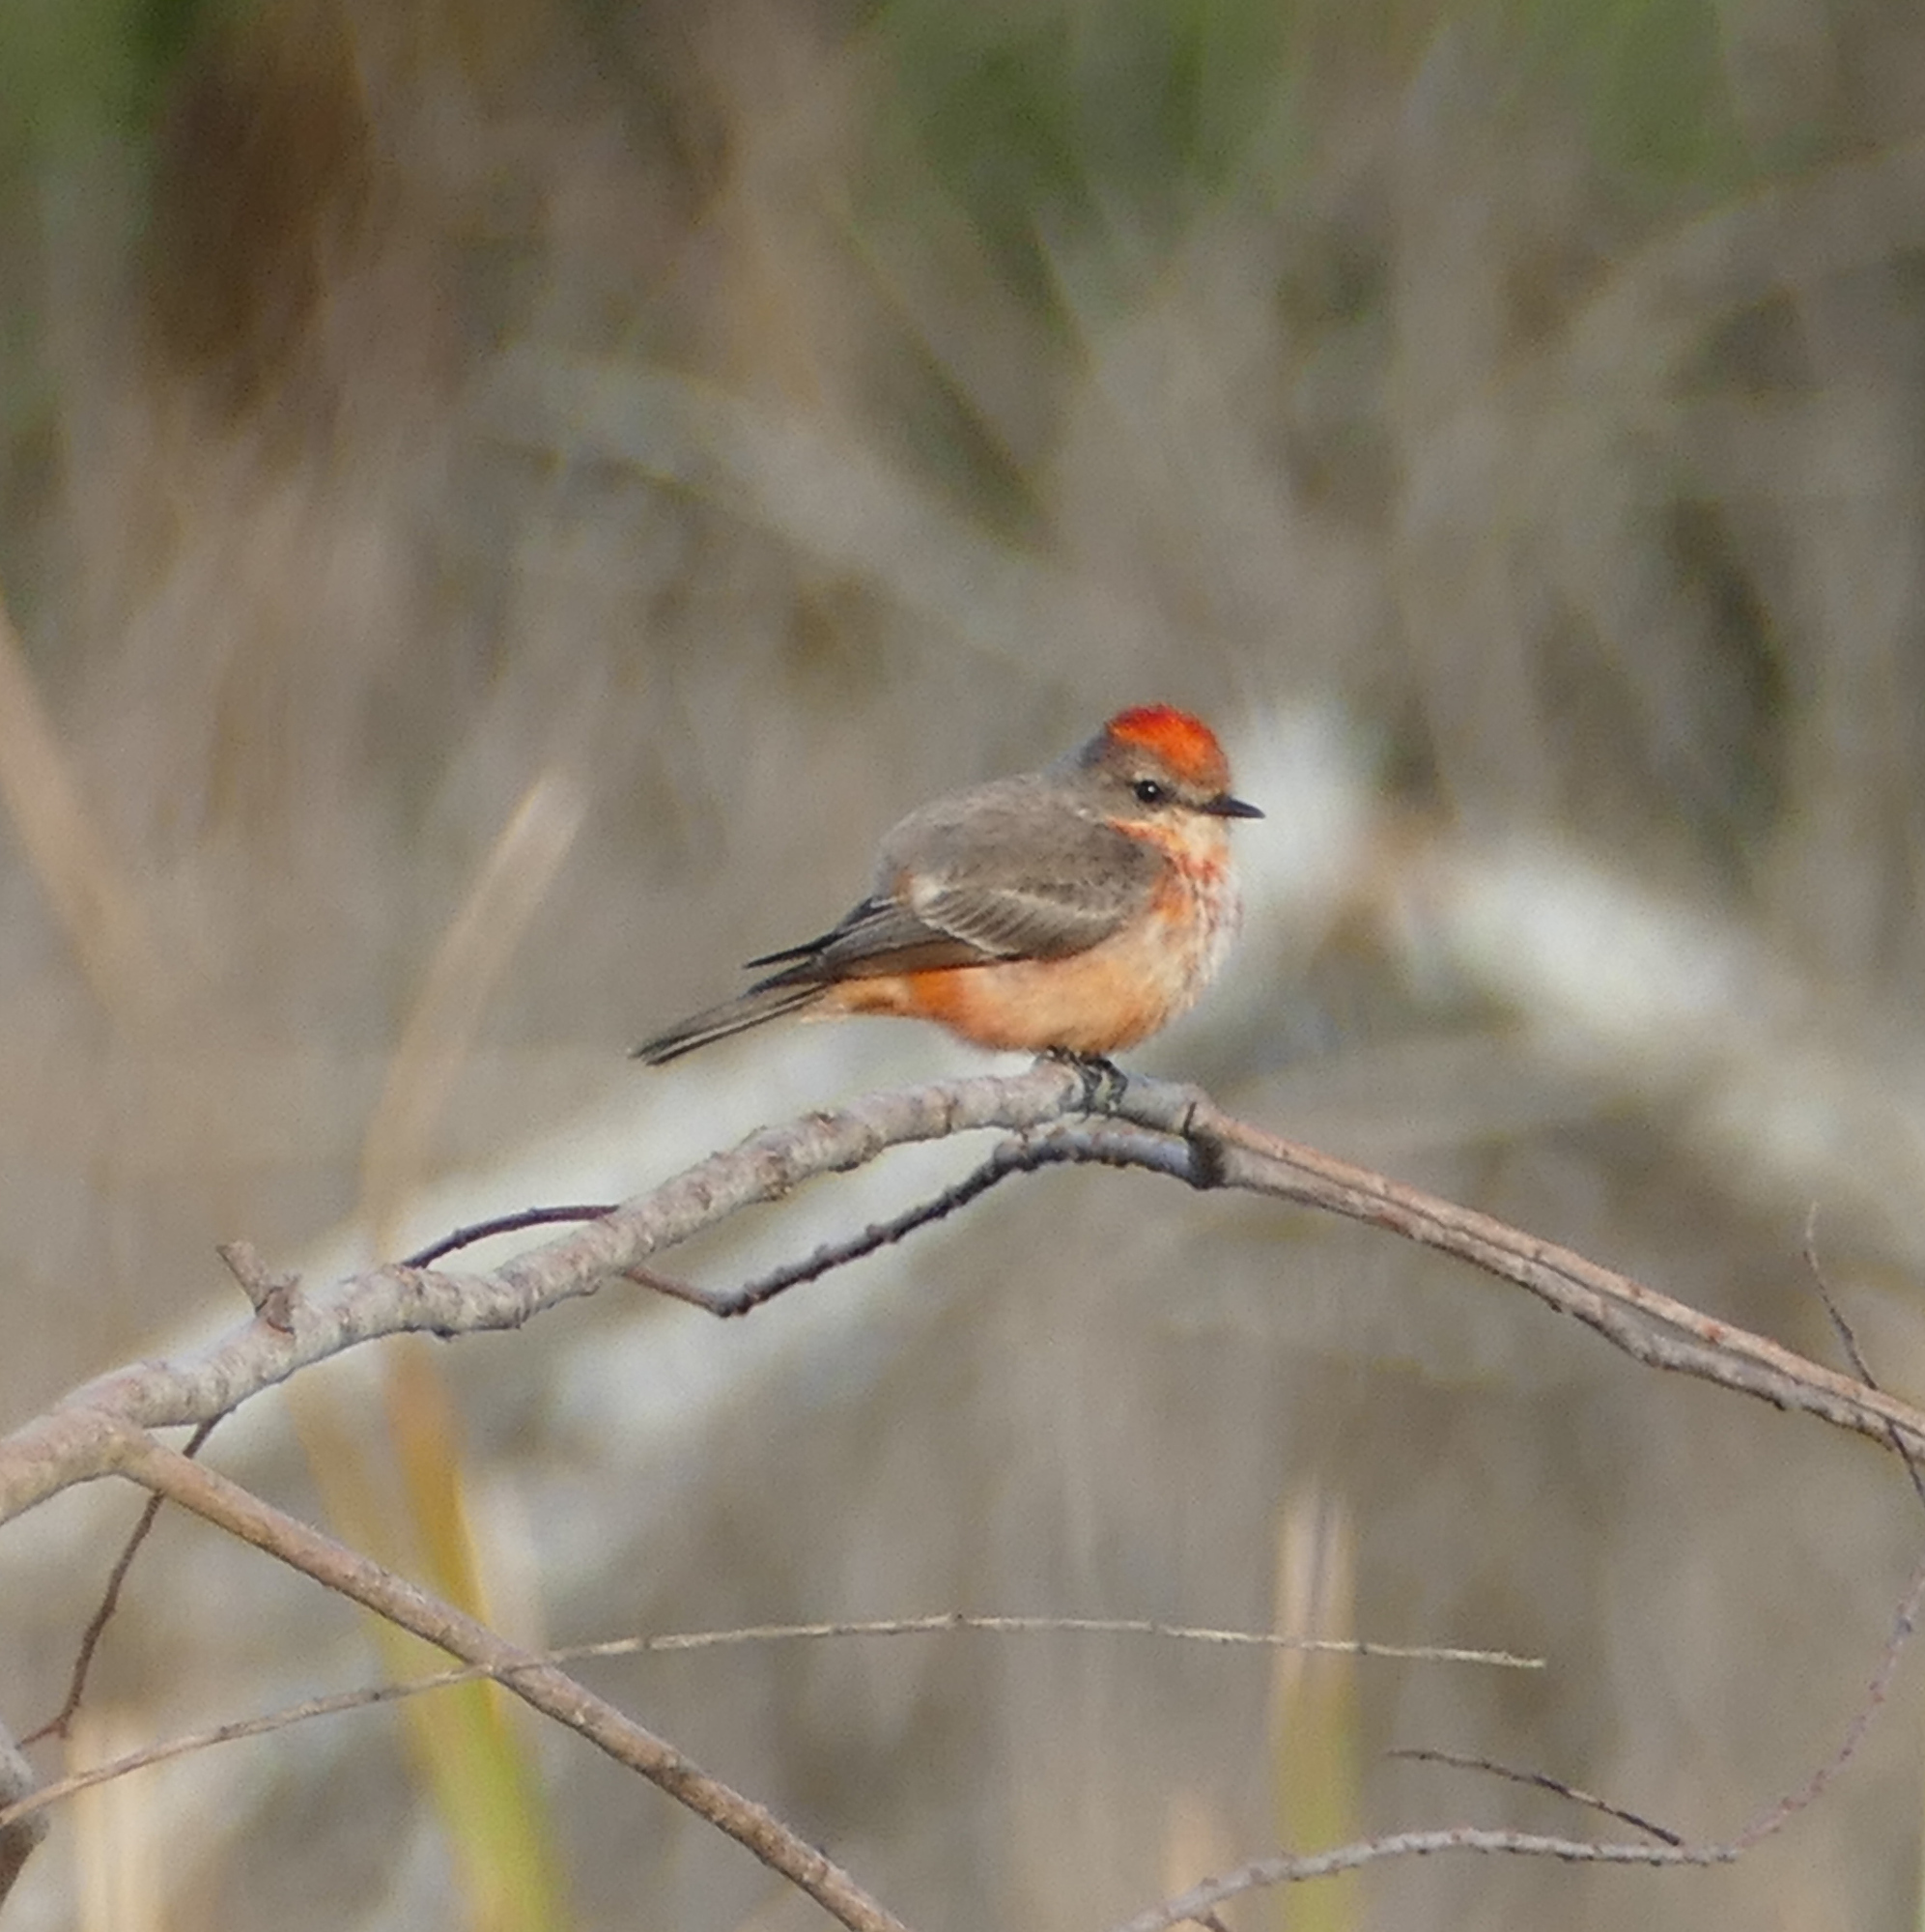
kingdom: Animalia
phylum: Chordata
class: Aves
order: Passeriformes
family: Tyrannidae
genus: Pyrocephalus
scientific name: Pyrocephalus rubinus
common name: Vermilion flycatcher
